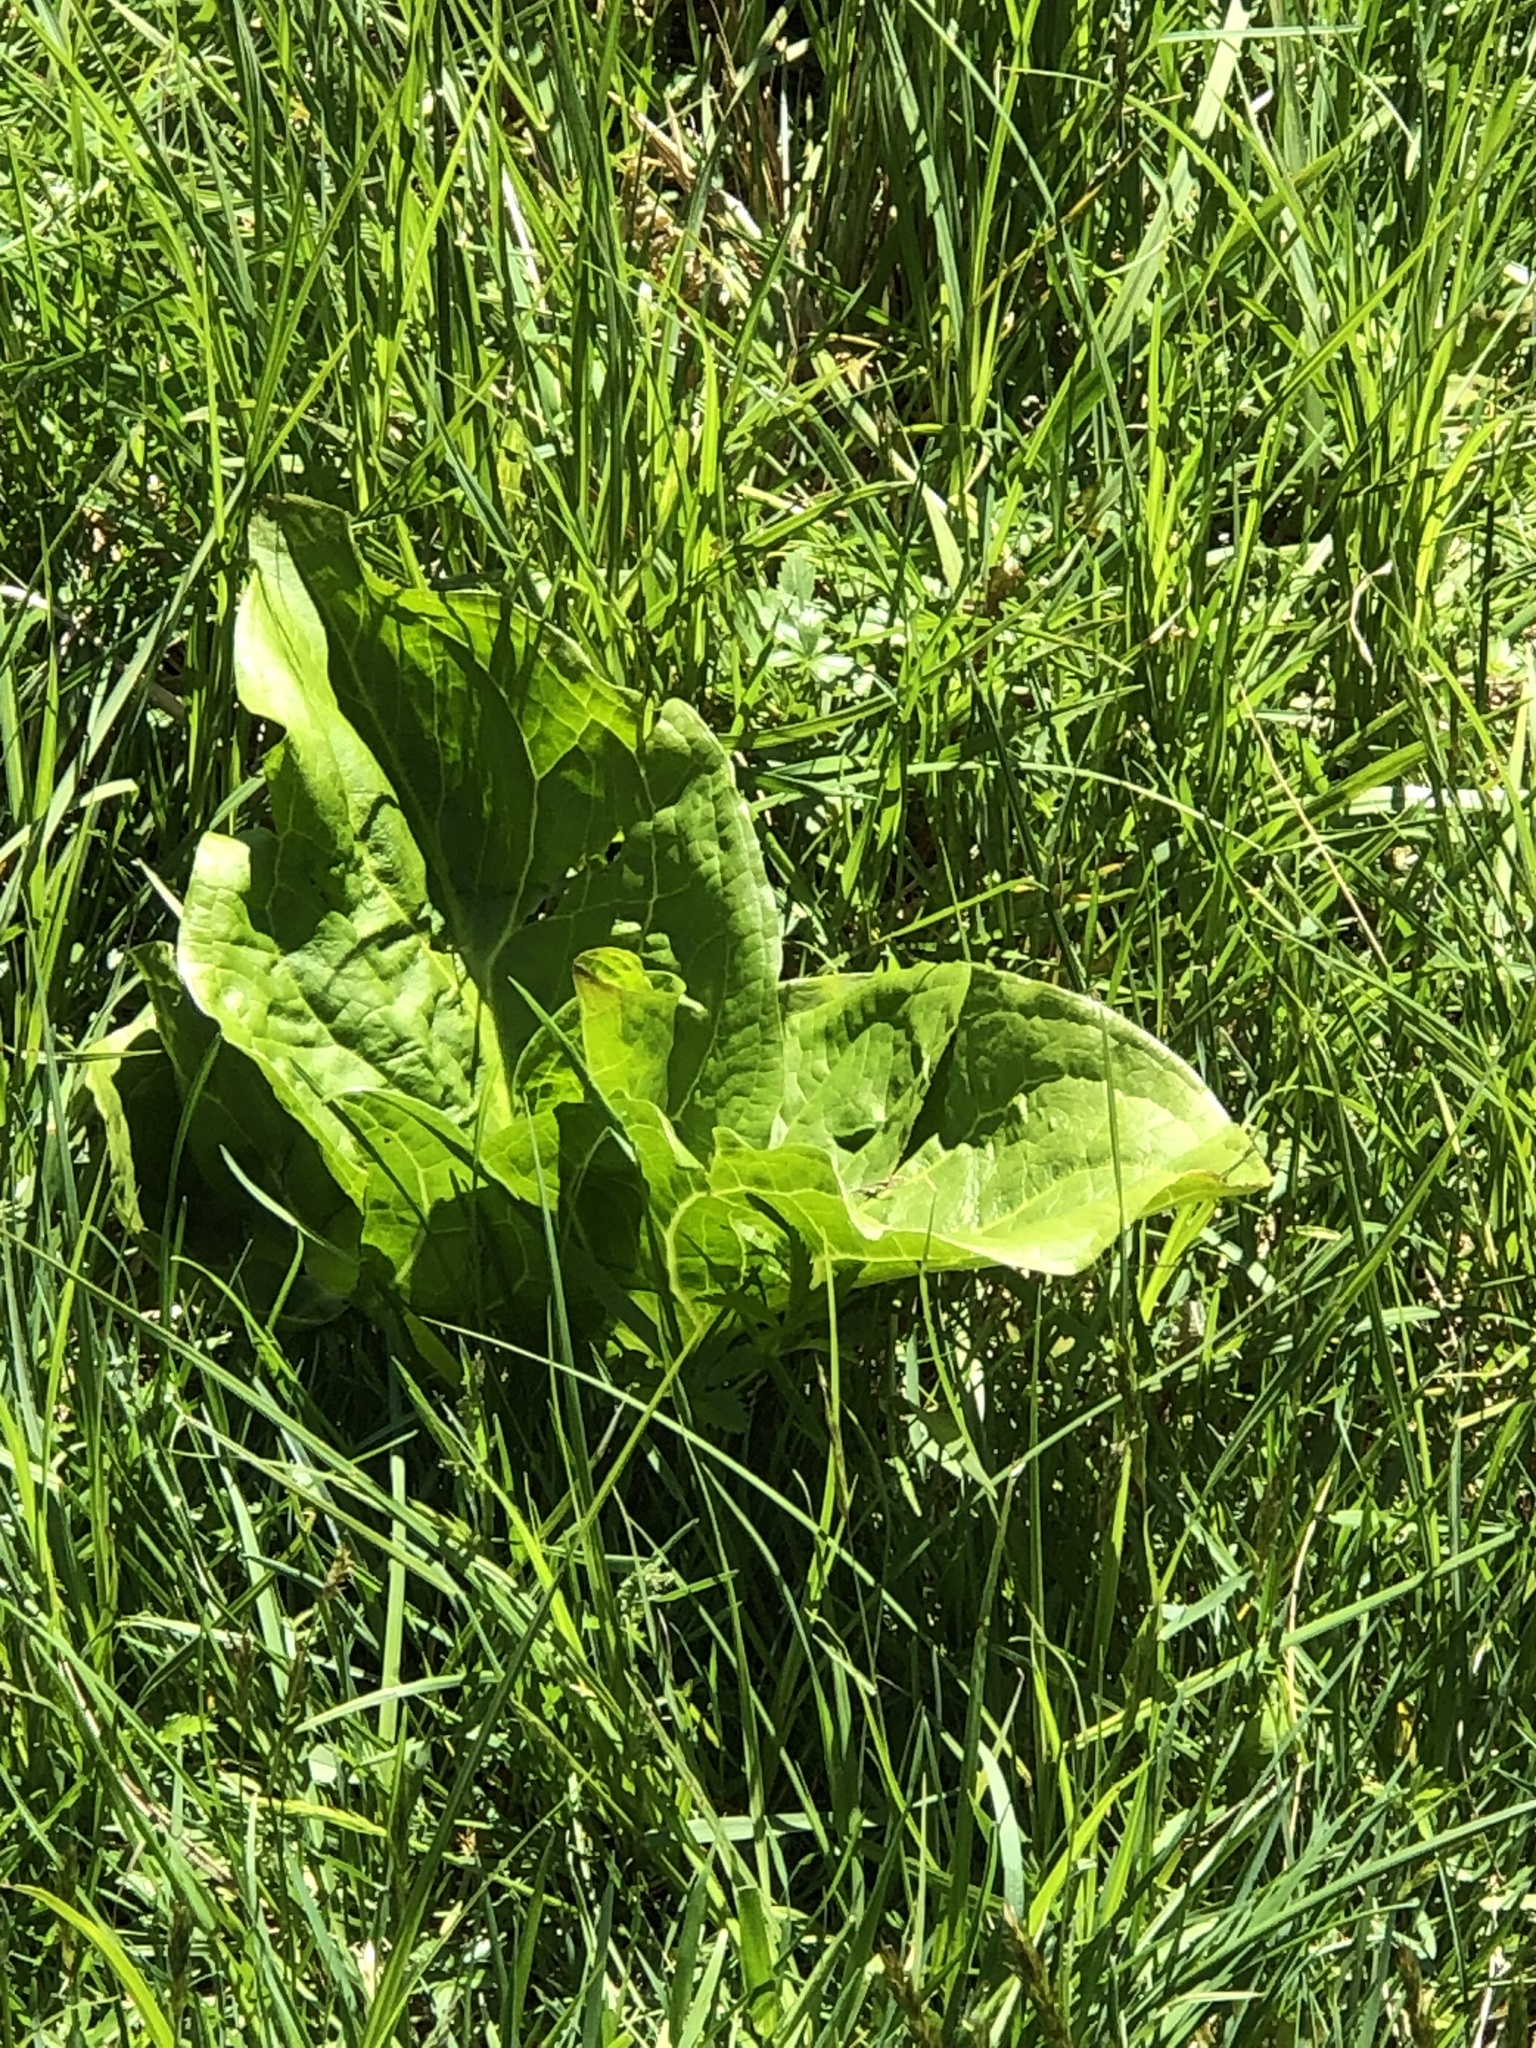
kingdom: Plantae
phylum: Tracheophyta
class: Liliopsida
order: Alismatales
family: Araceae
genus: Symplocarpus
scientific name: Symplocarpus foetidus
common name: Eastern skunk cabbage
